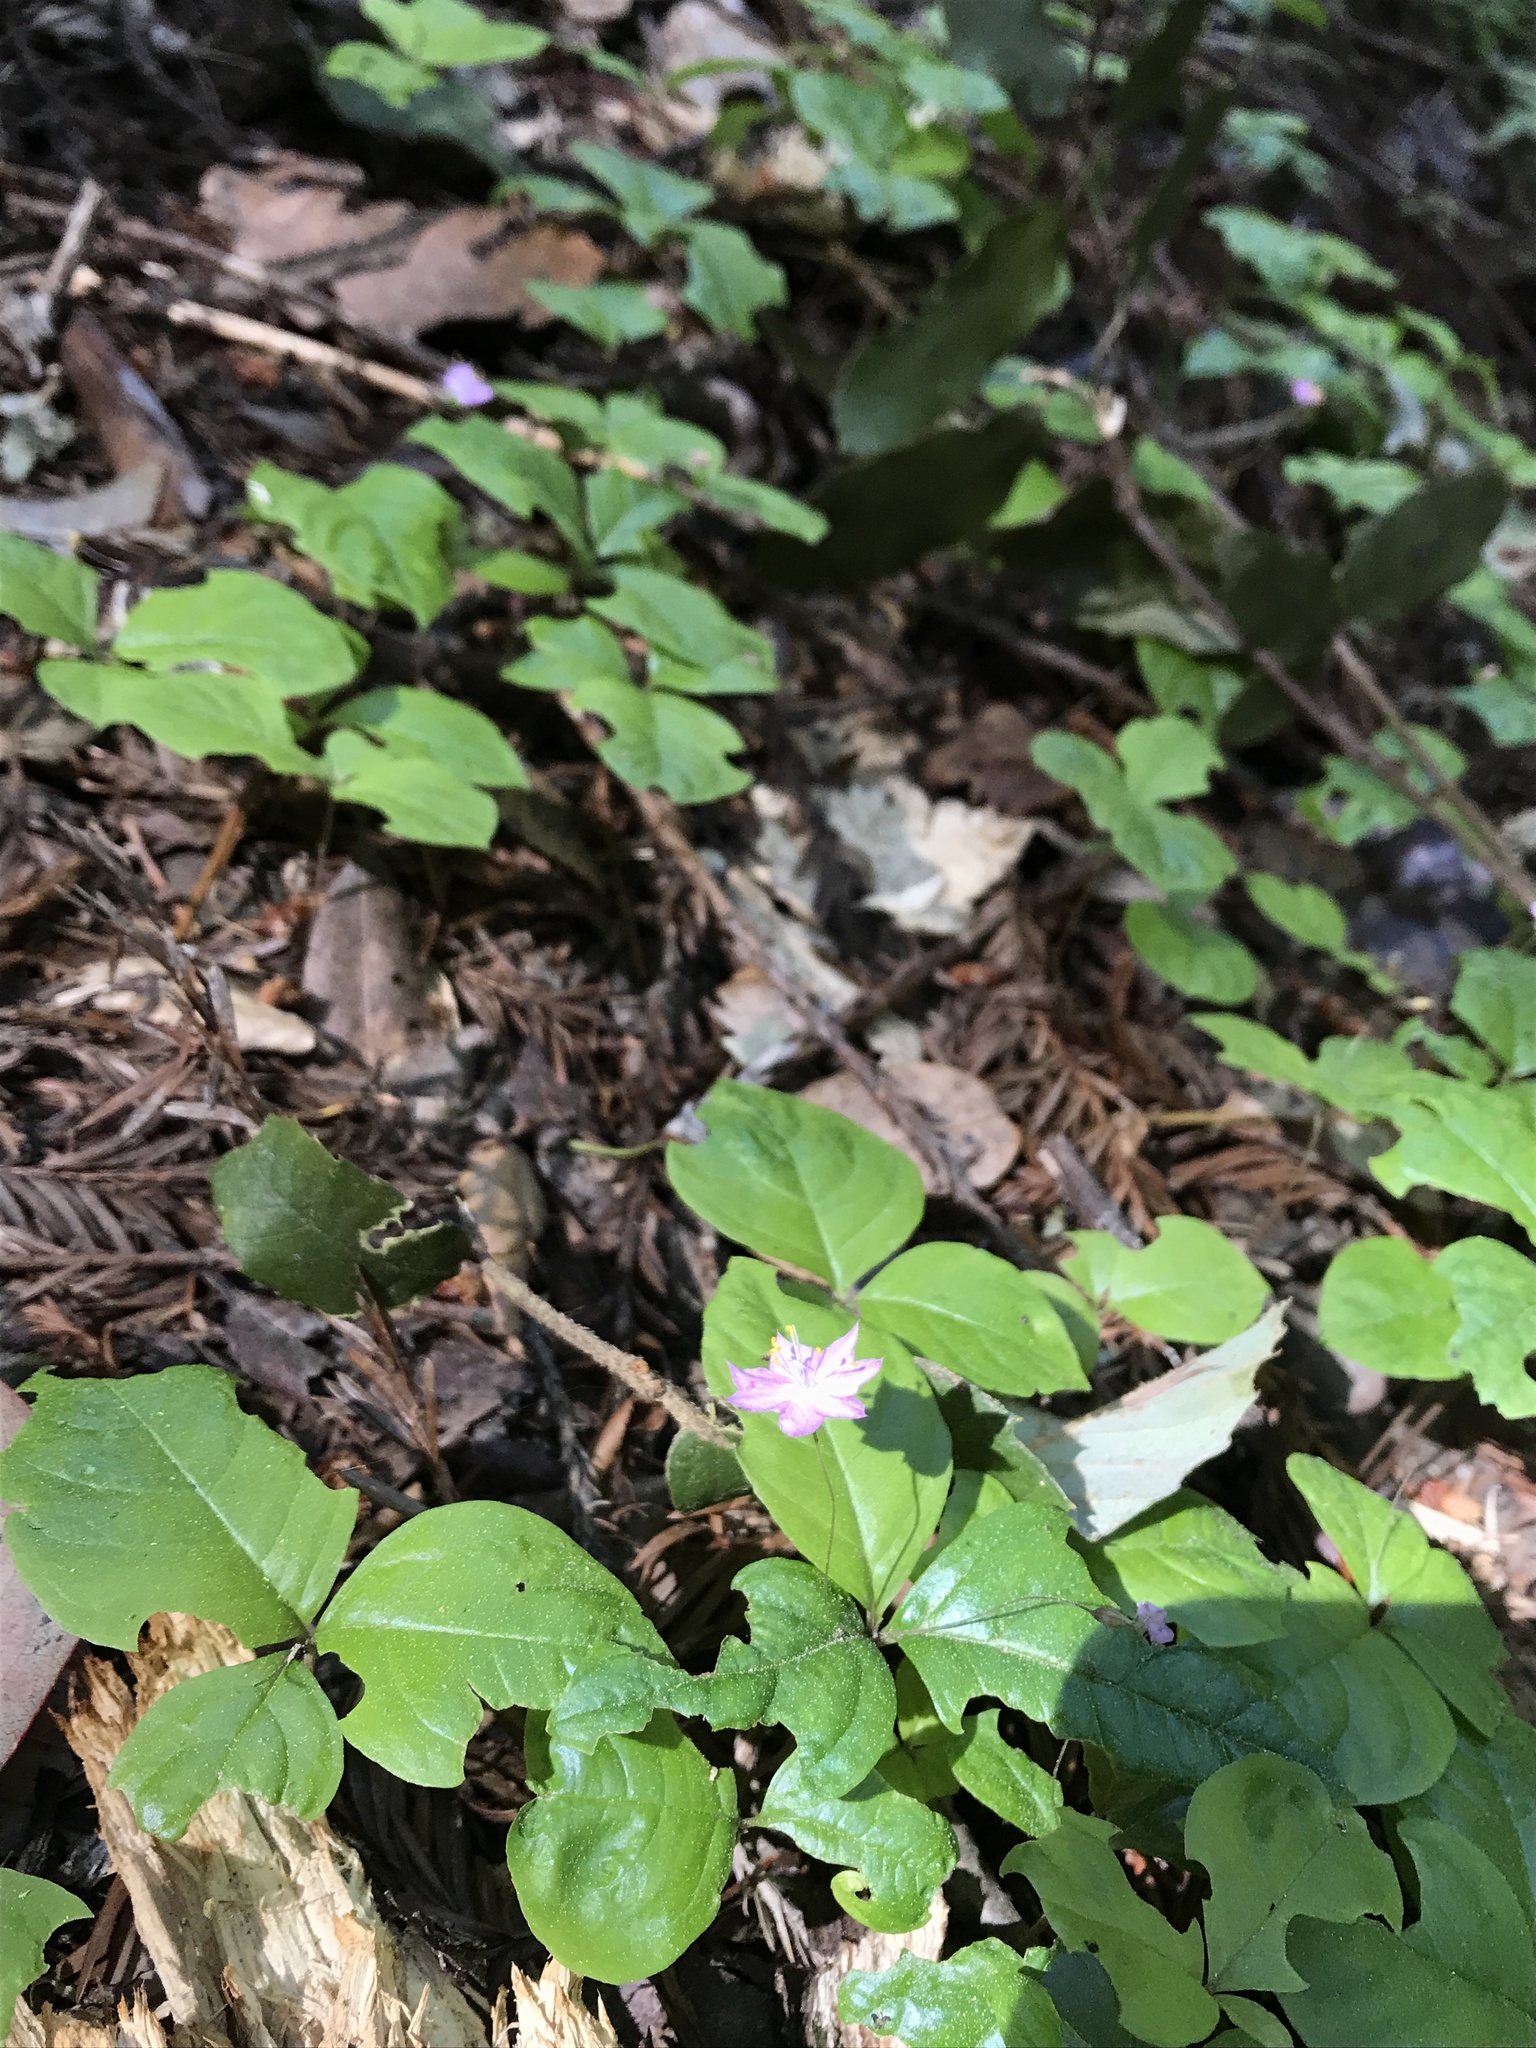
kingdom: Plantae
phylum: Tracheophyta
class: Magnoliopsida
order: Ericales
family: Primulaceae
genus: Lysimachia
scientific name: Lysimachia latifolia
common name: Pacific starflower
